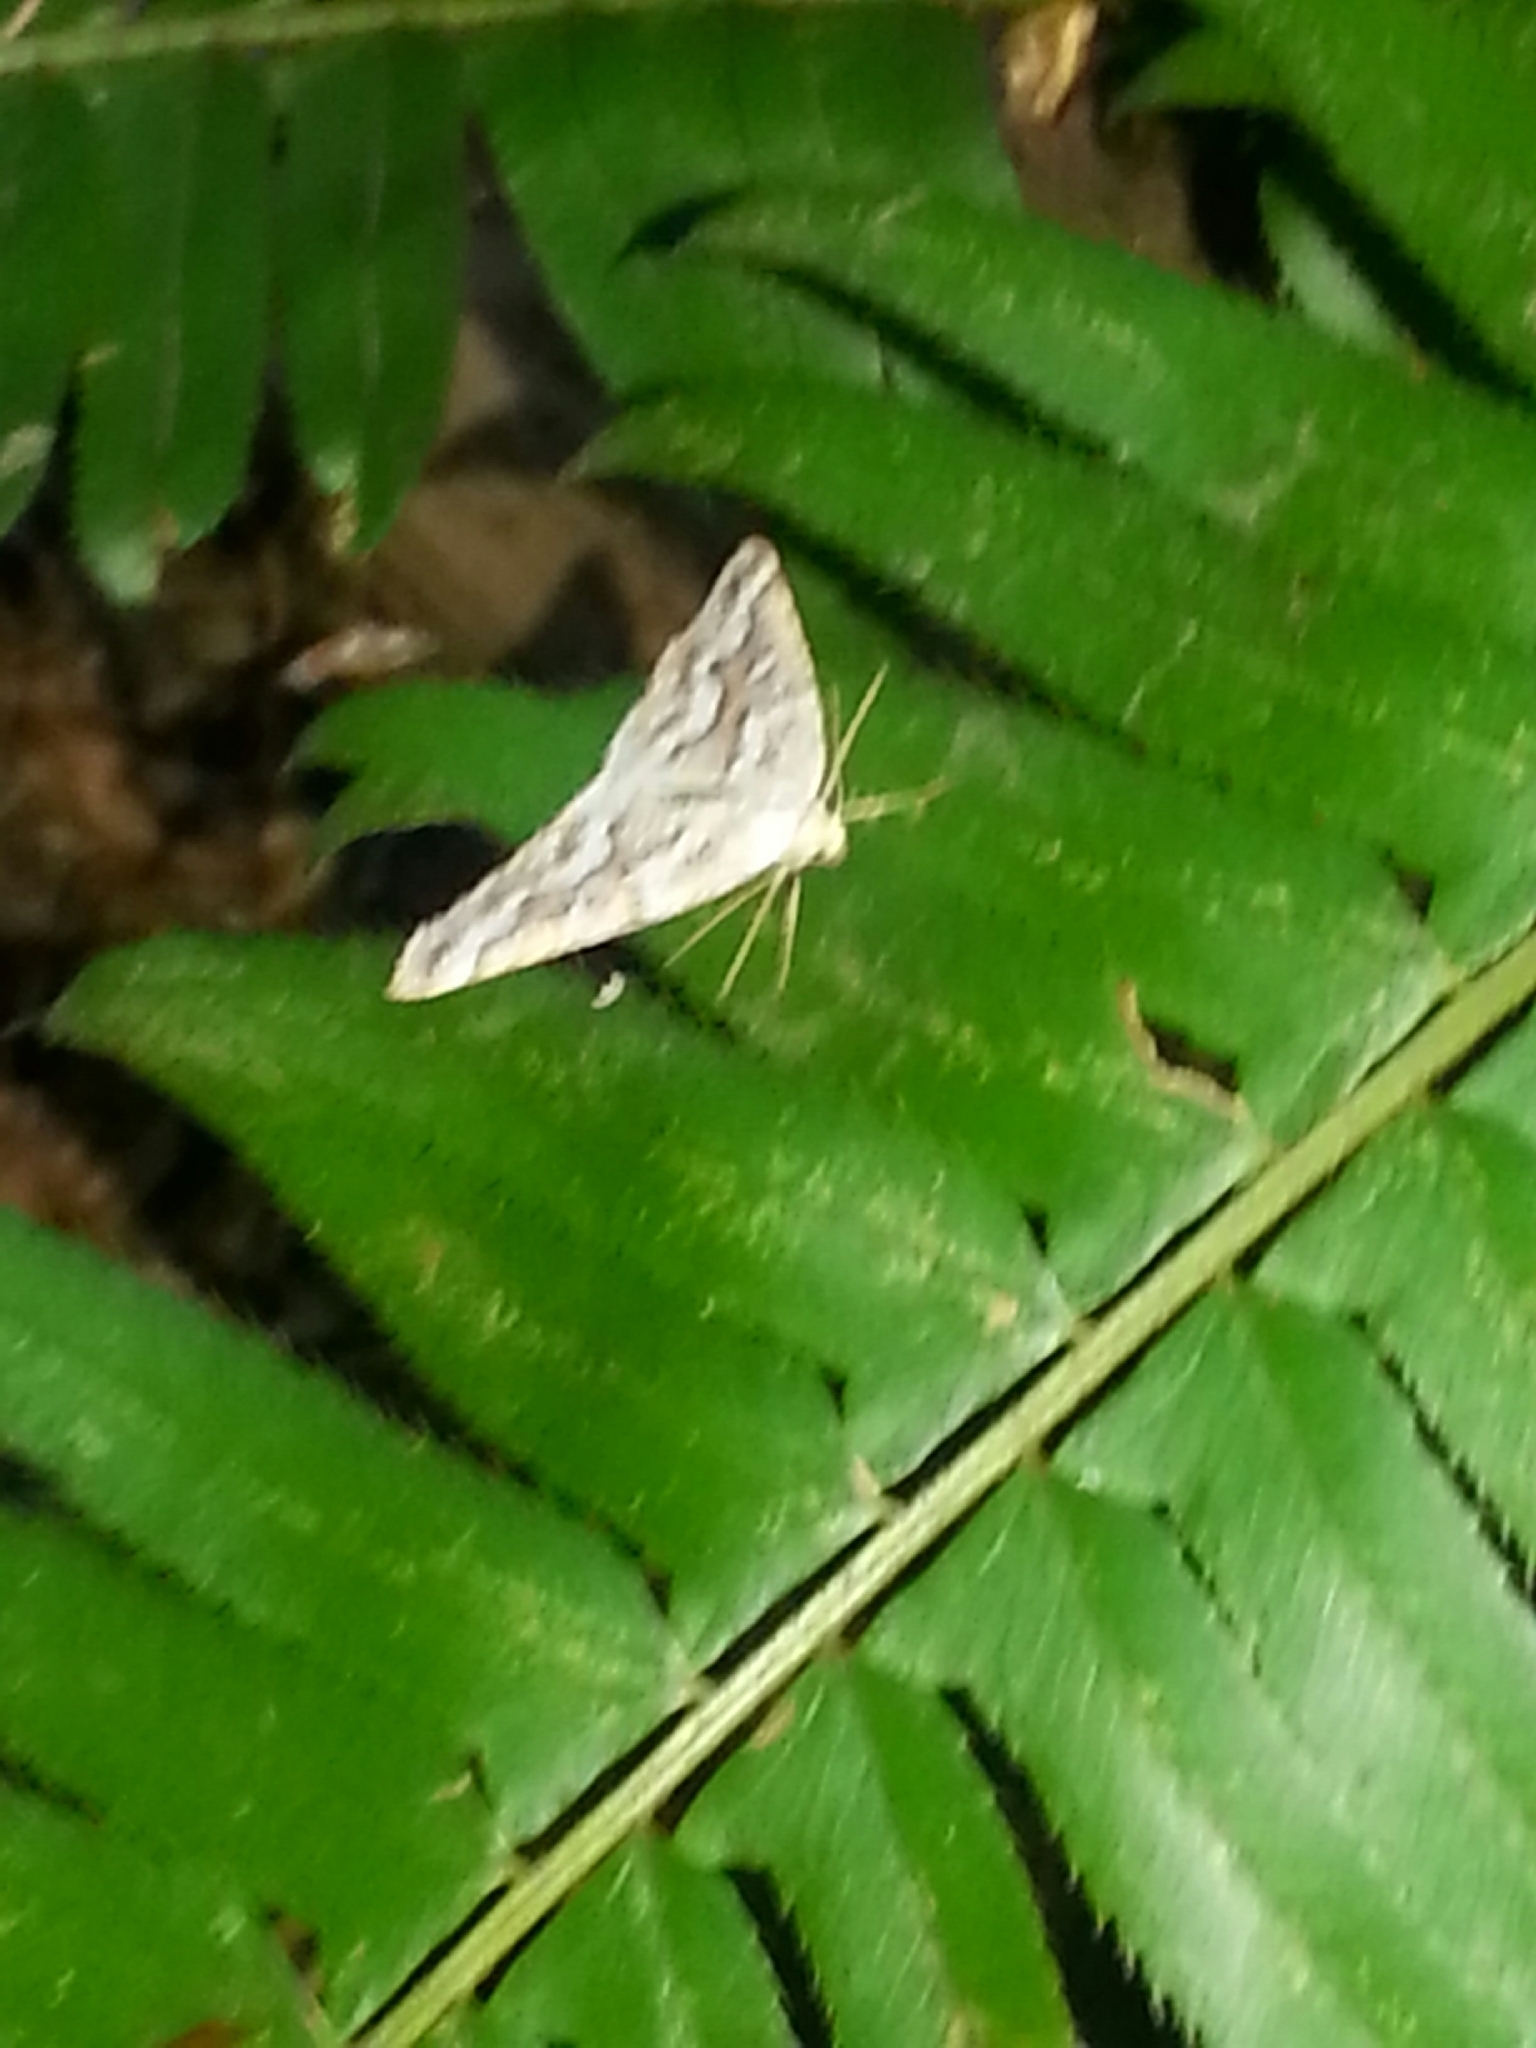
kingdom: Animalia
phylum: Arthropoda
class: Insecta
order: Lepidoptera
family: Geometridae
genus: Caripeta
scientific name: Caripeta divisata
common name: Gray spruce looper
